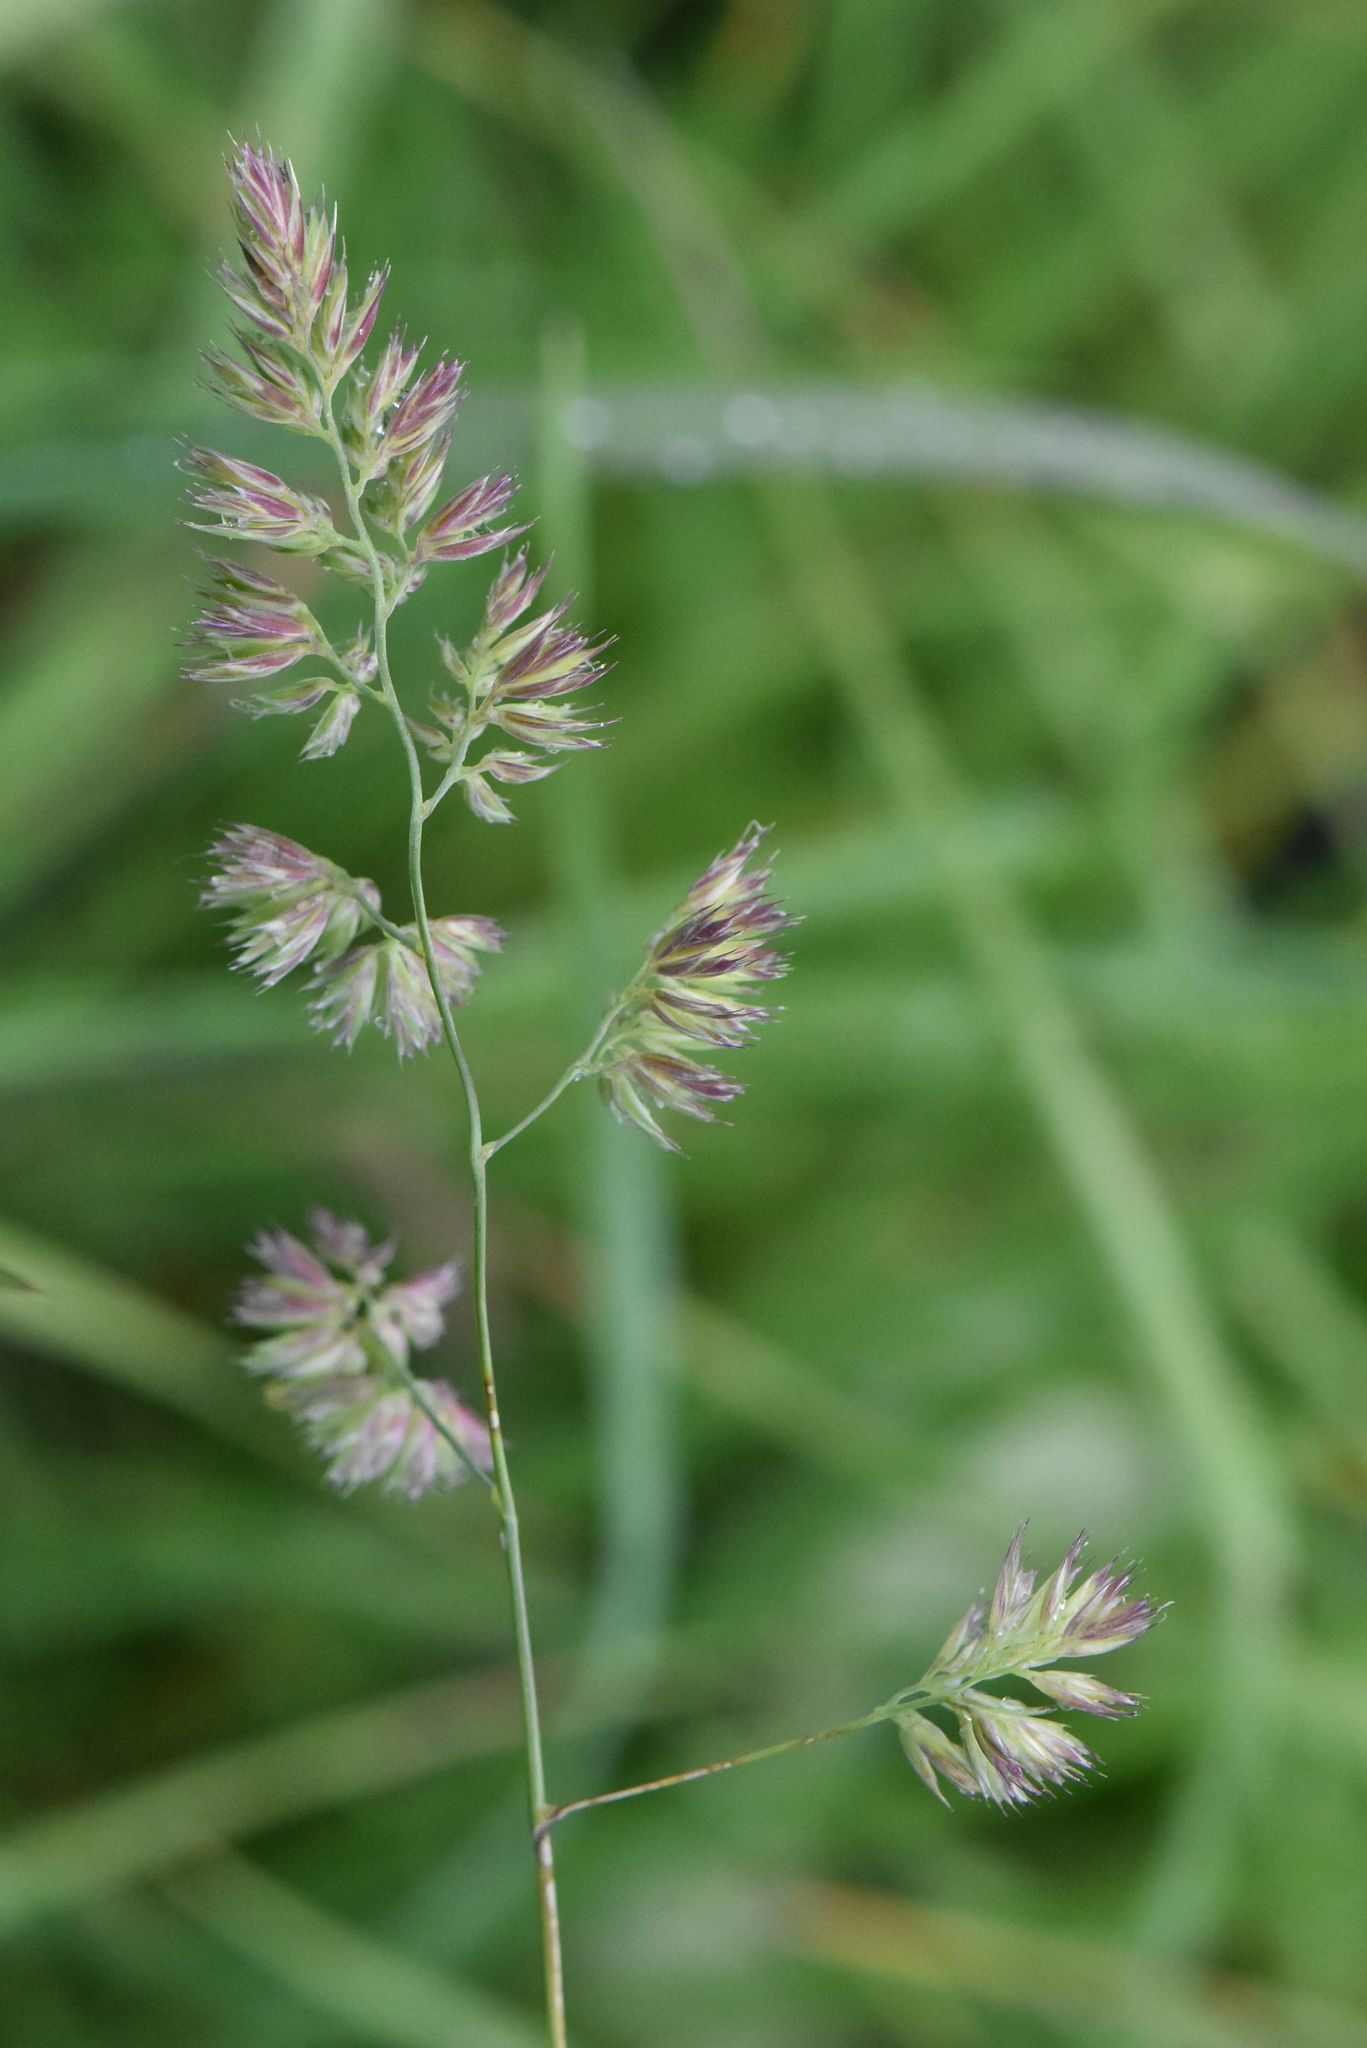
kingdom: Plantae
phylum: Tracheophyta
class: Liliopsida
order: Poales
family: Poaceae
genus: Dactylis
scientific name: Dactylis glomerata
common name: Orchardgrass
